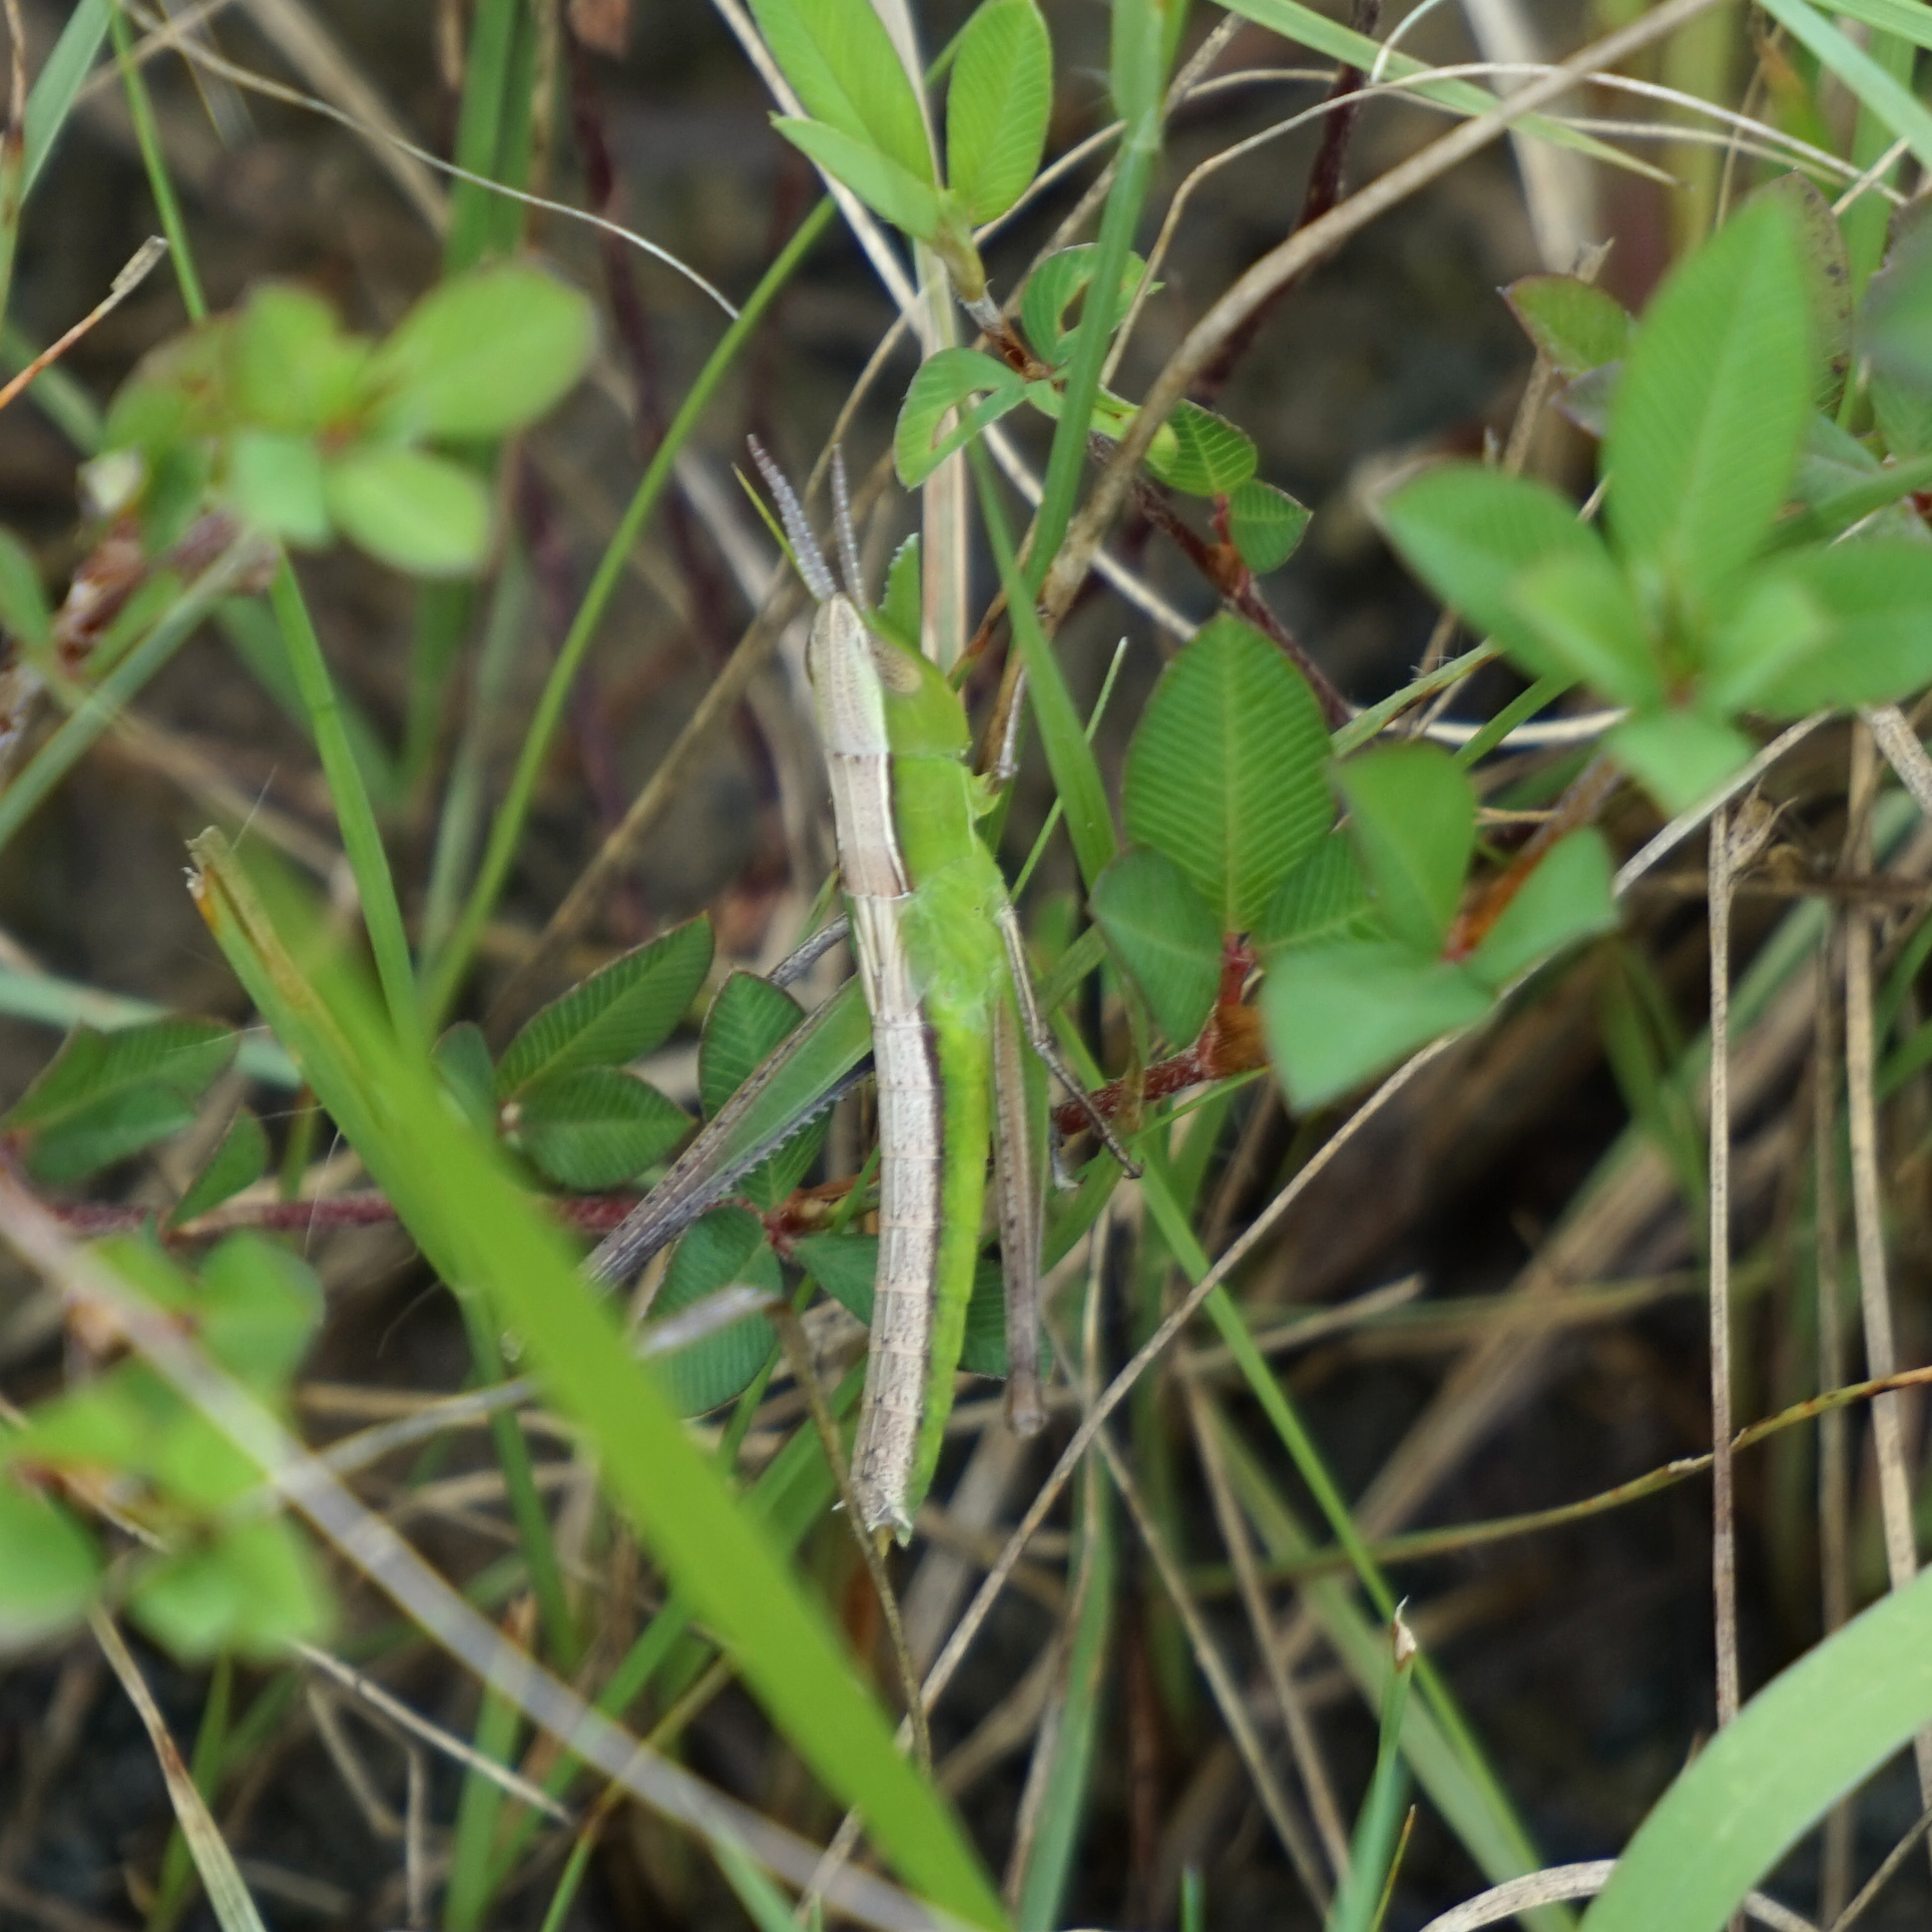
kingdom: Animalia
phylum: Arthropoda
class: Insecta
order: Orthoptera
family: Acrididae
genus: Syrbula
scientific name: Syrbula admirabilis
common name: Handsome grasshopper
